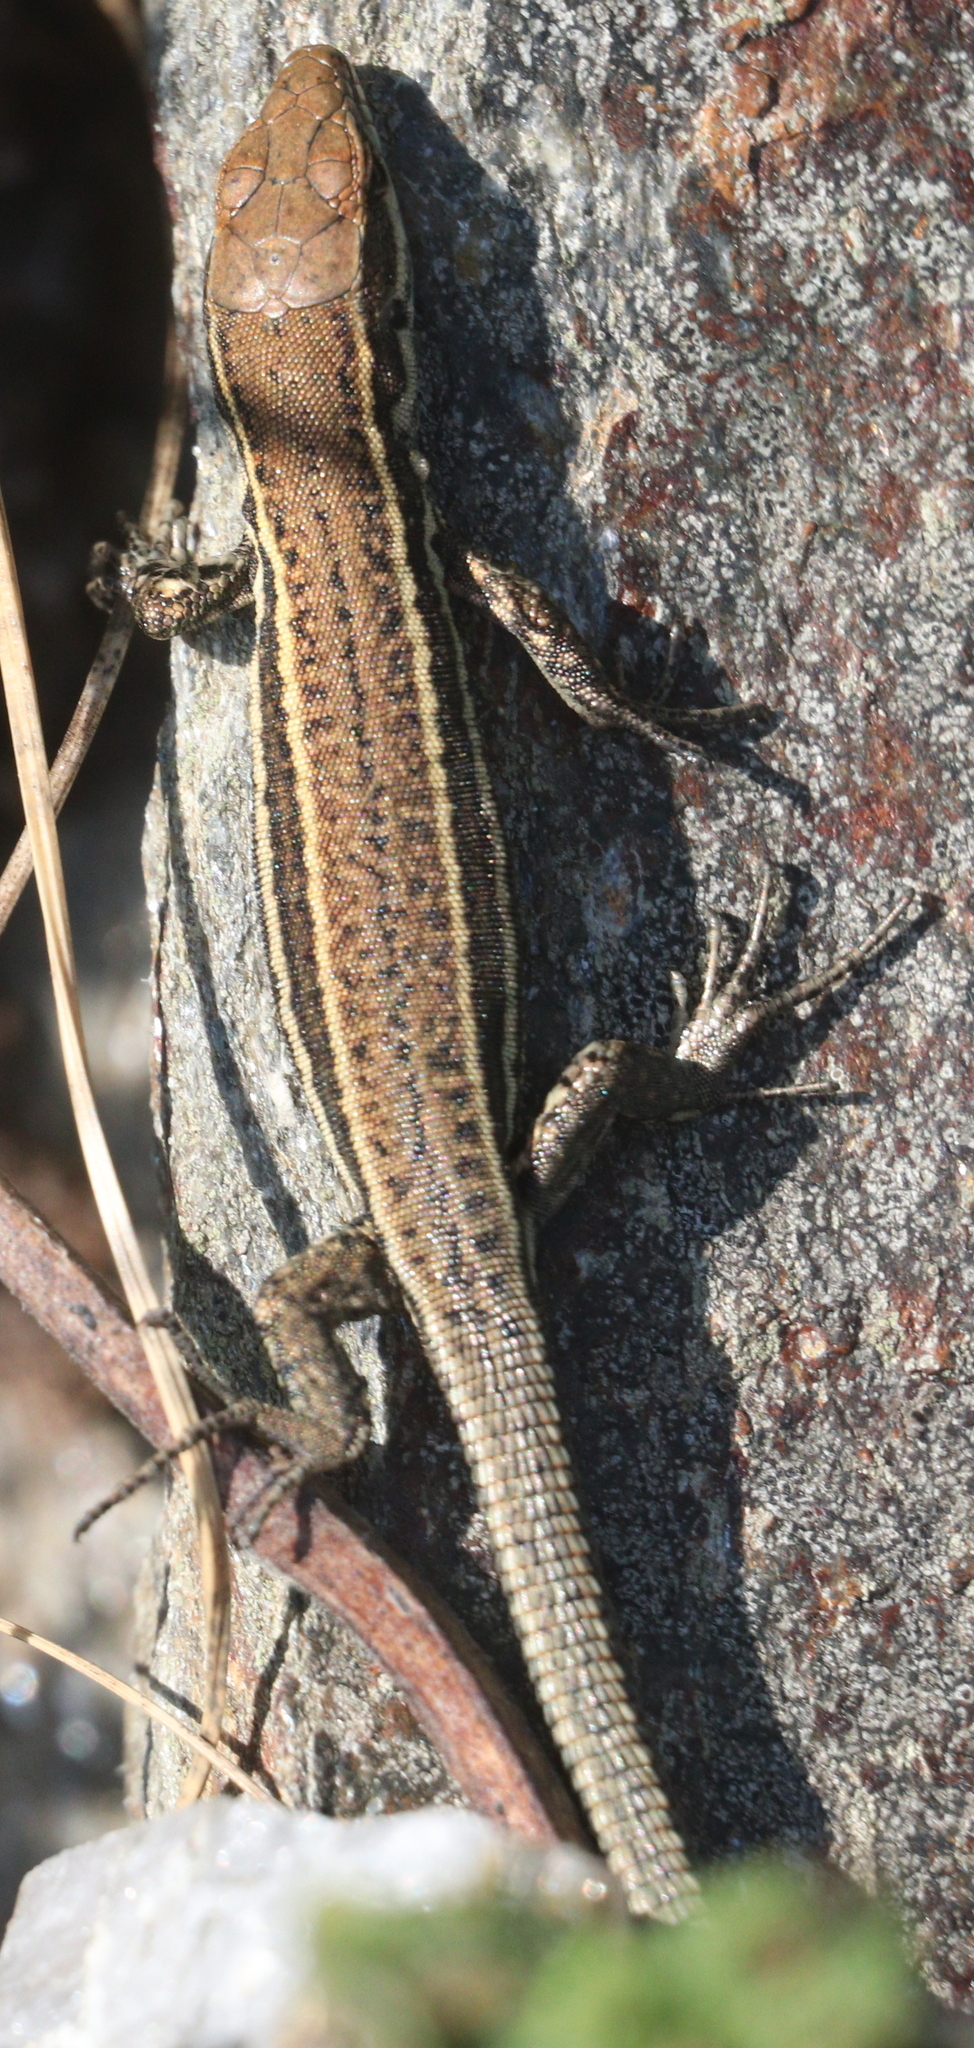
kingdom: Animalia
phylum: Chordata
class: Squamata
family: Lacertidae
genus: Podarcis
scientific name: Podarcis muralis
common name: Common wall lizard
